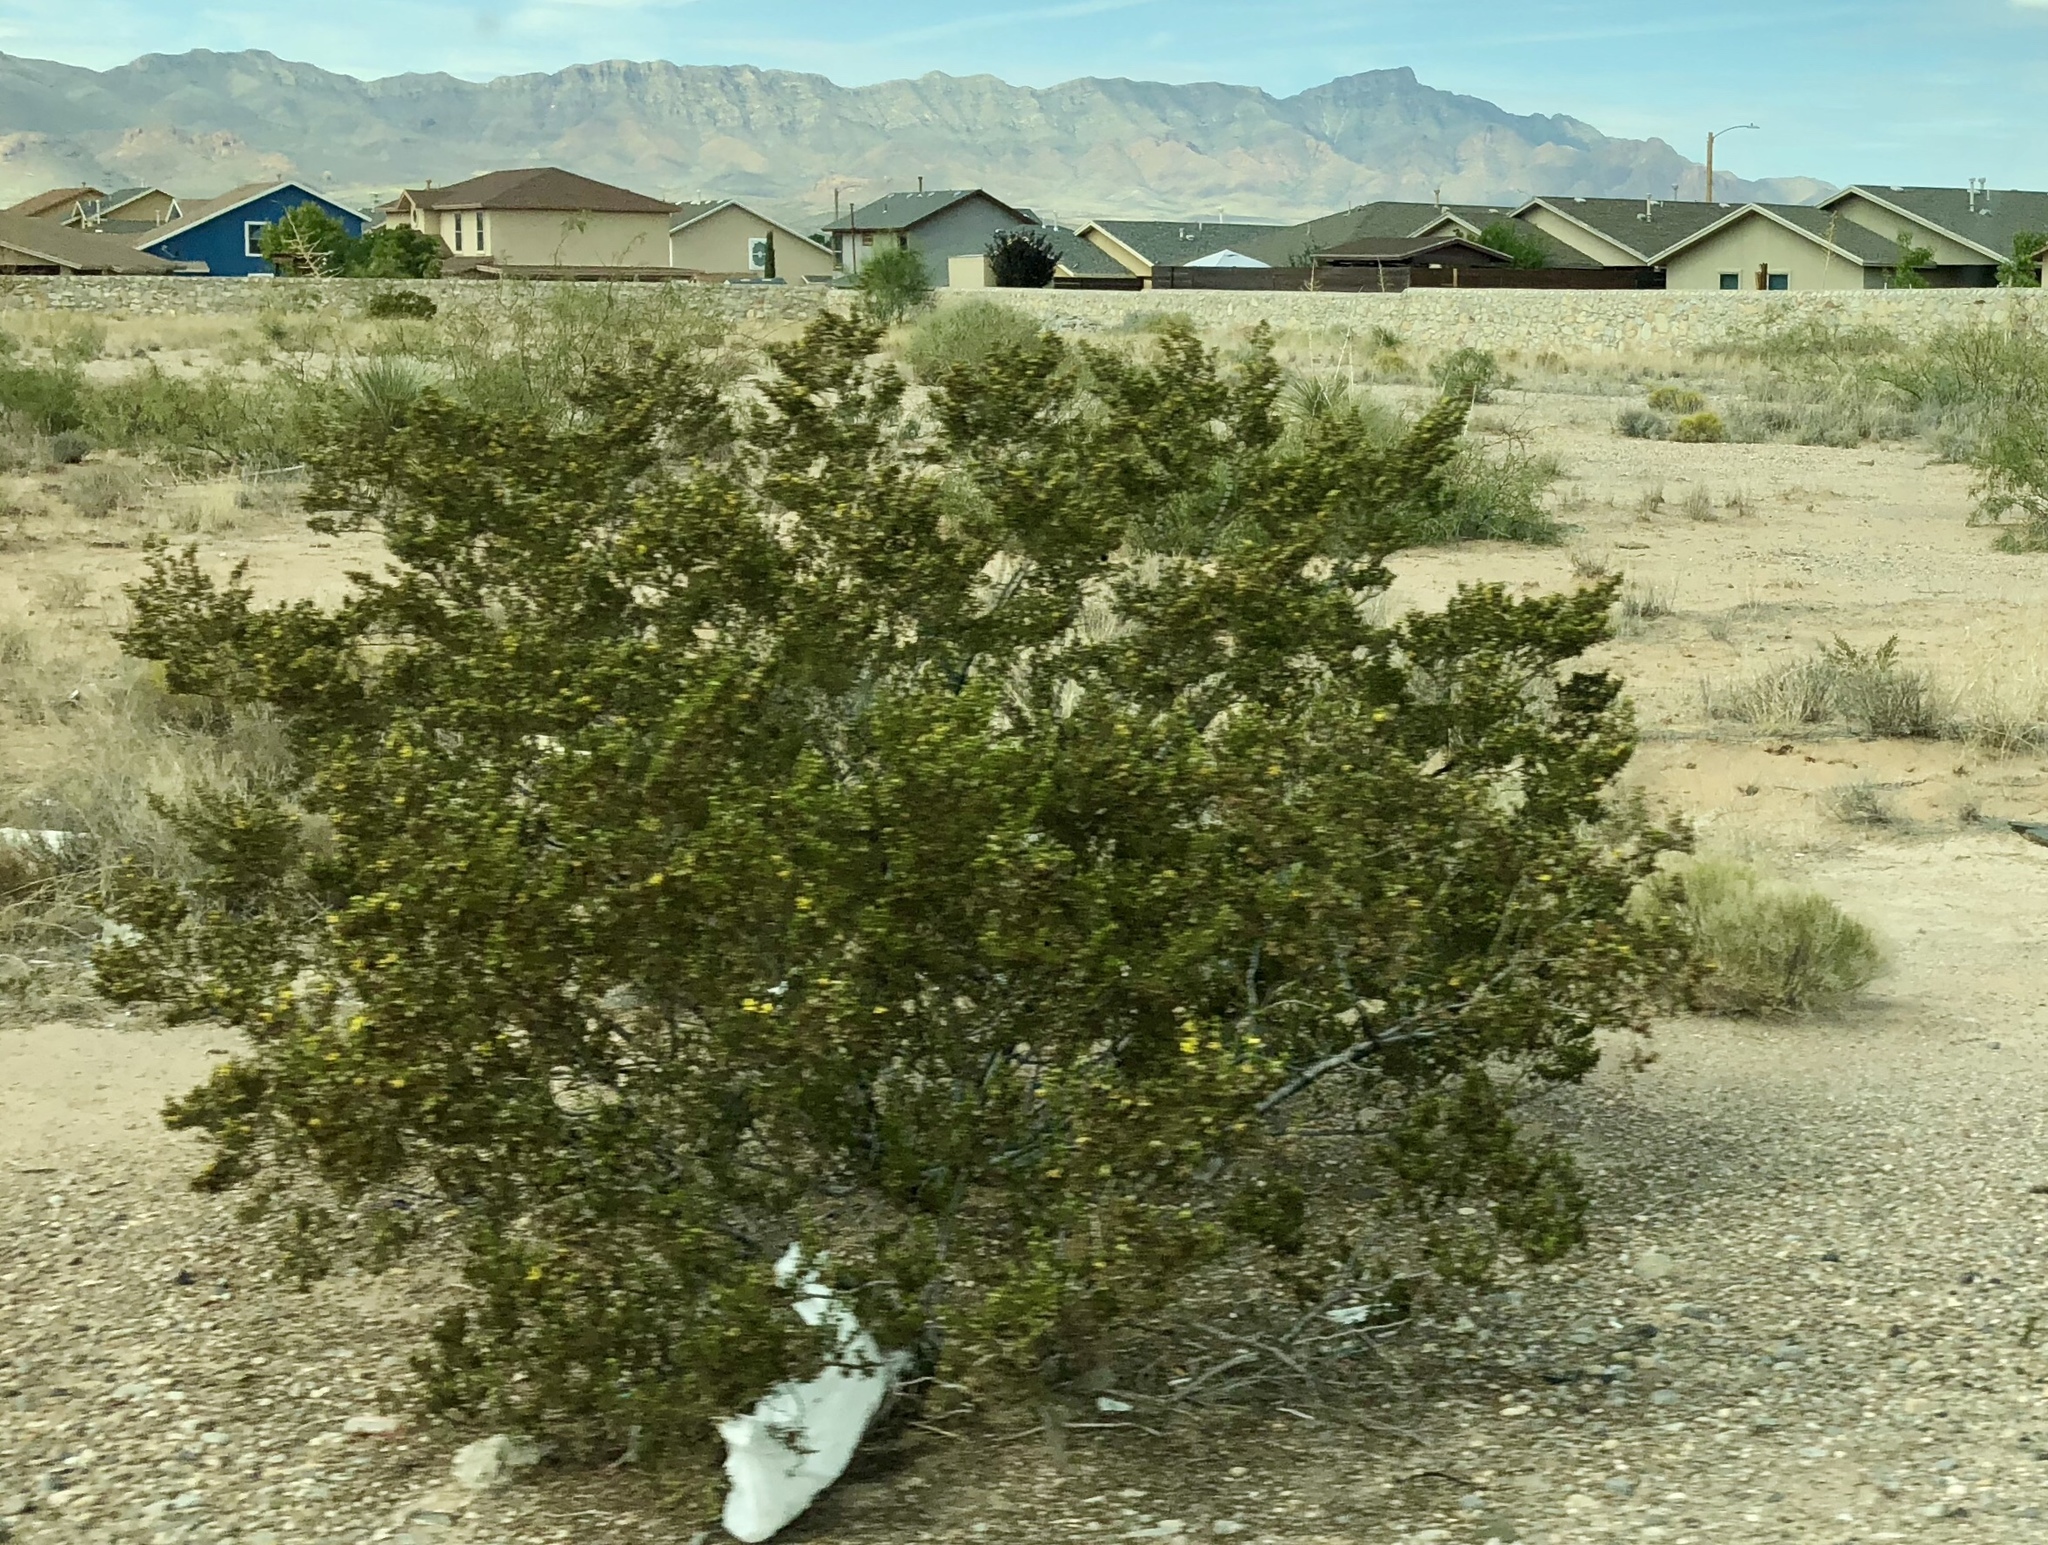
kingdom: Plantae
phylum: Tracheophyta
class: Magnoliopsida
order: Zygophyllales
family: Zygophyllaceae
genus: Larrea
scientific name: Larrea tridentata
